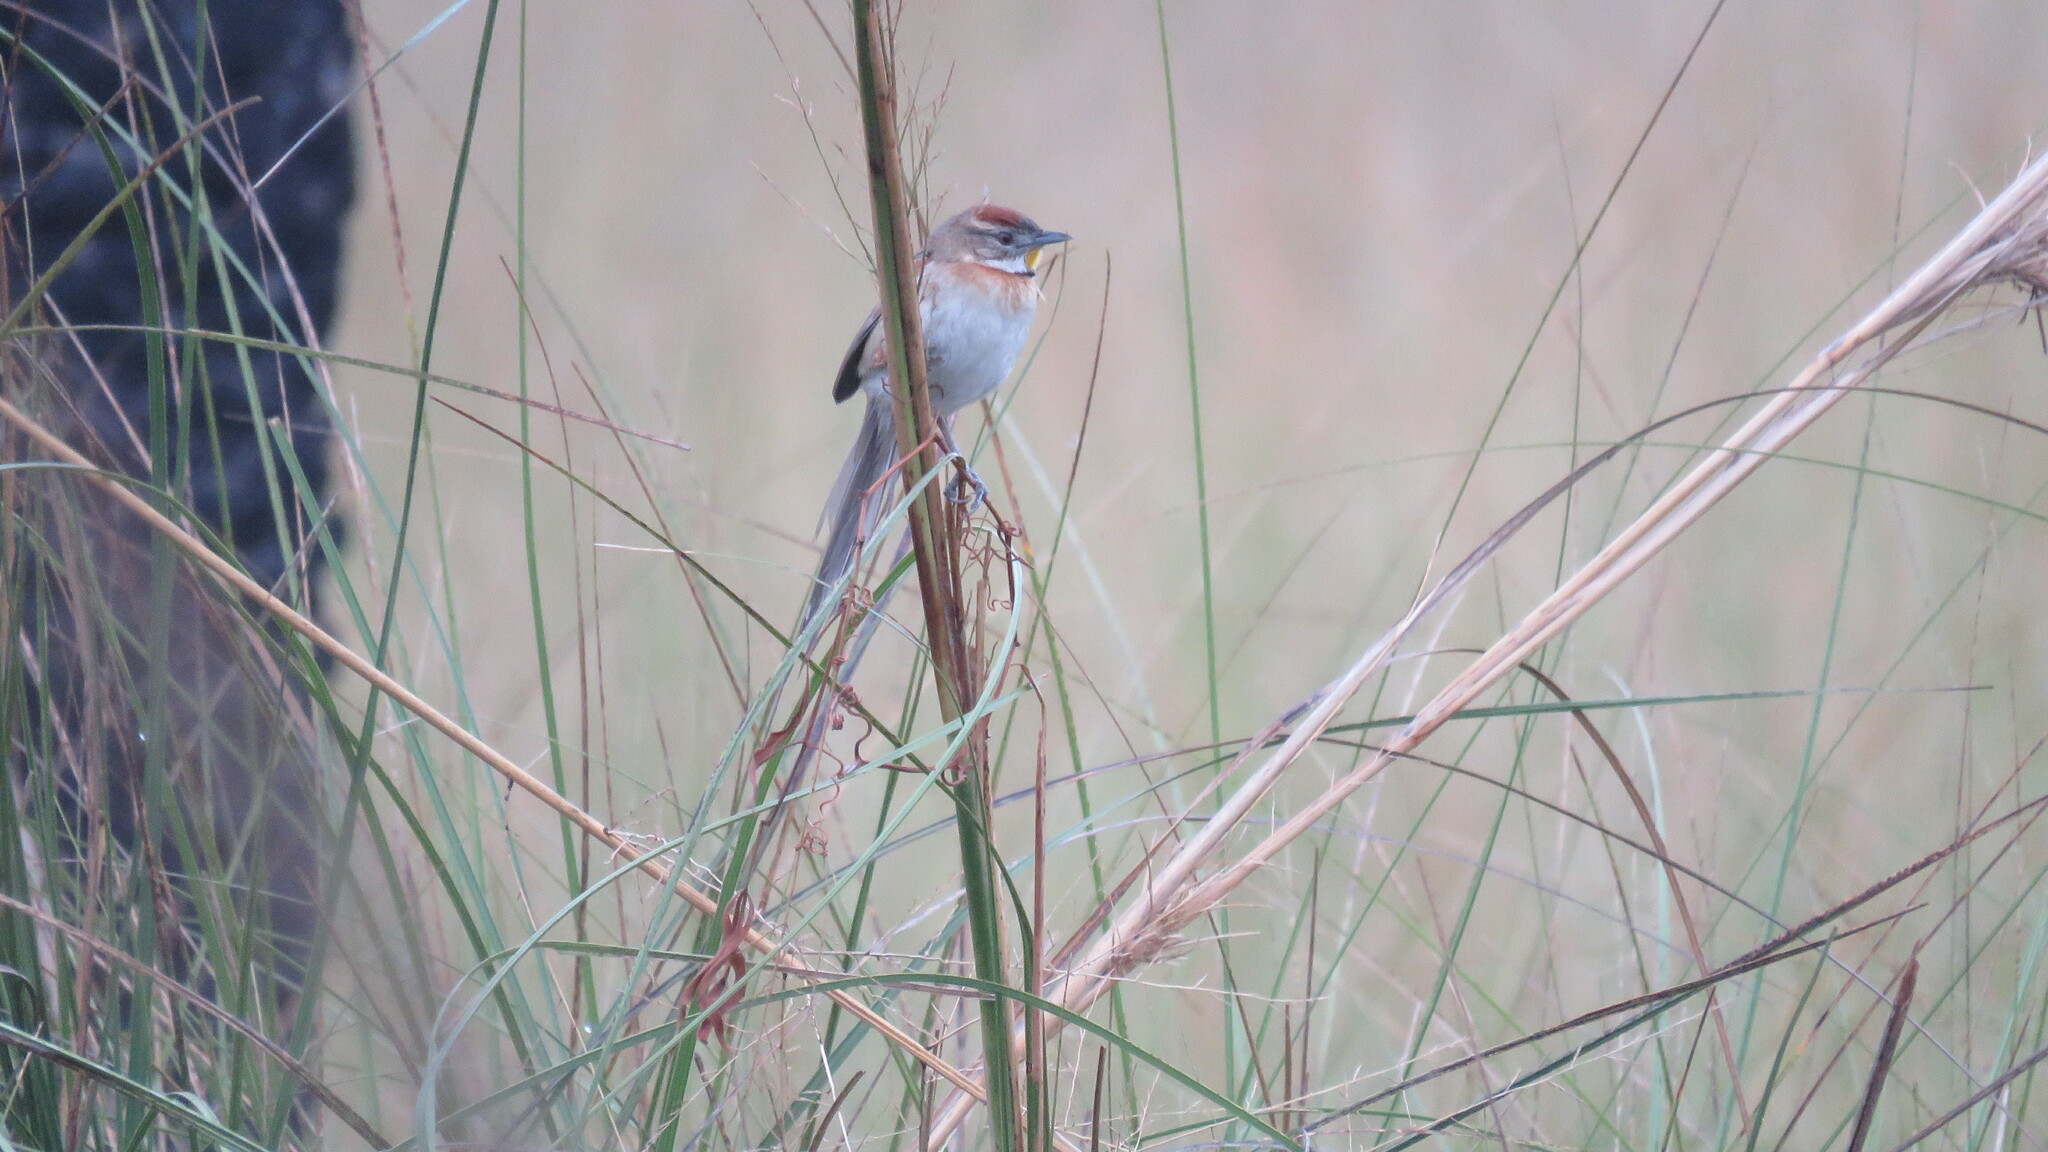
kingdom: Animalia
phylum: Chordata
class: Aves
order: Passeriformes
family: Furnariidae
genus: Schoeniophylax
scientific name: Schoeniophylax phryganophilus
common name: Chotoy spinetail
